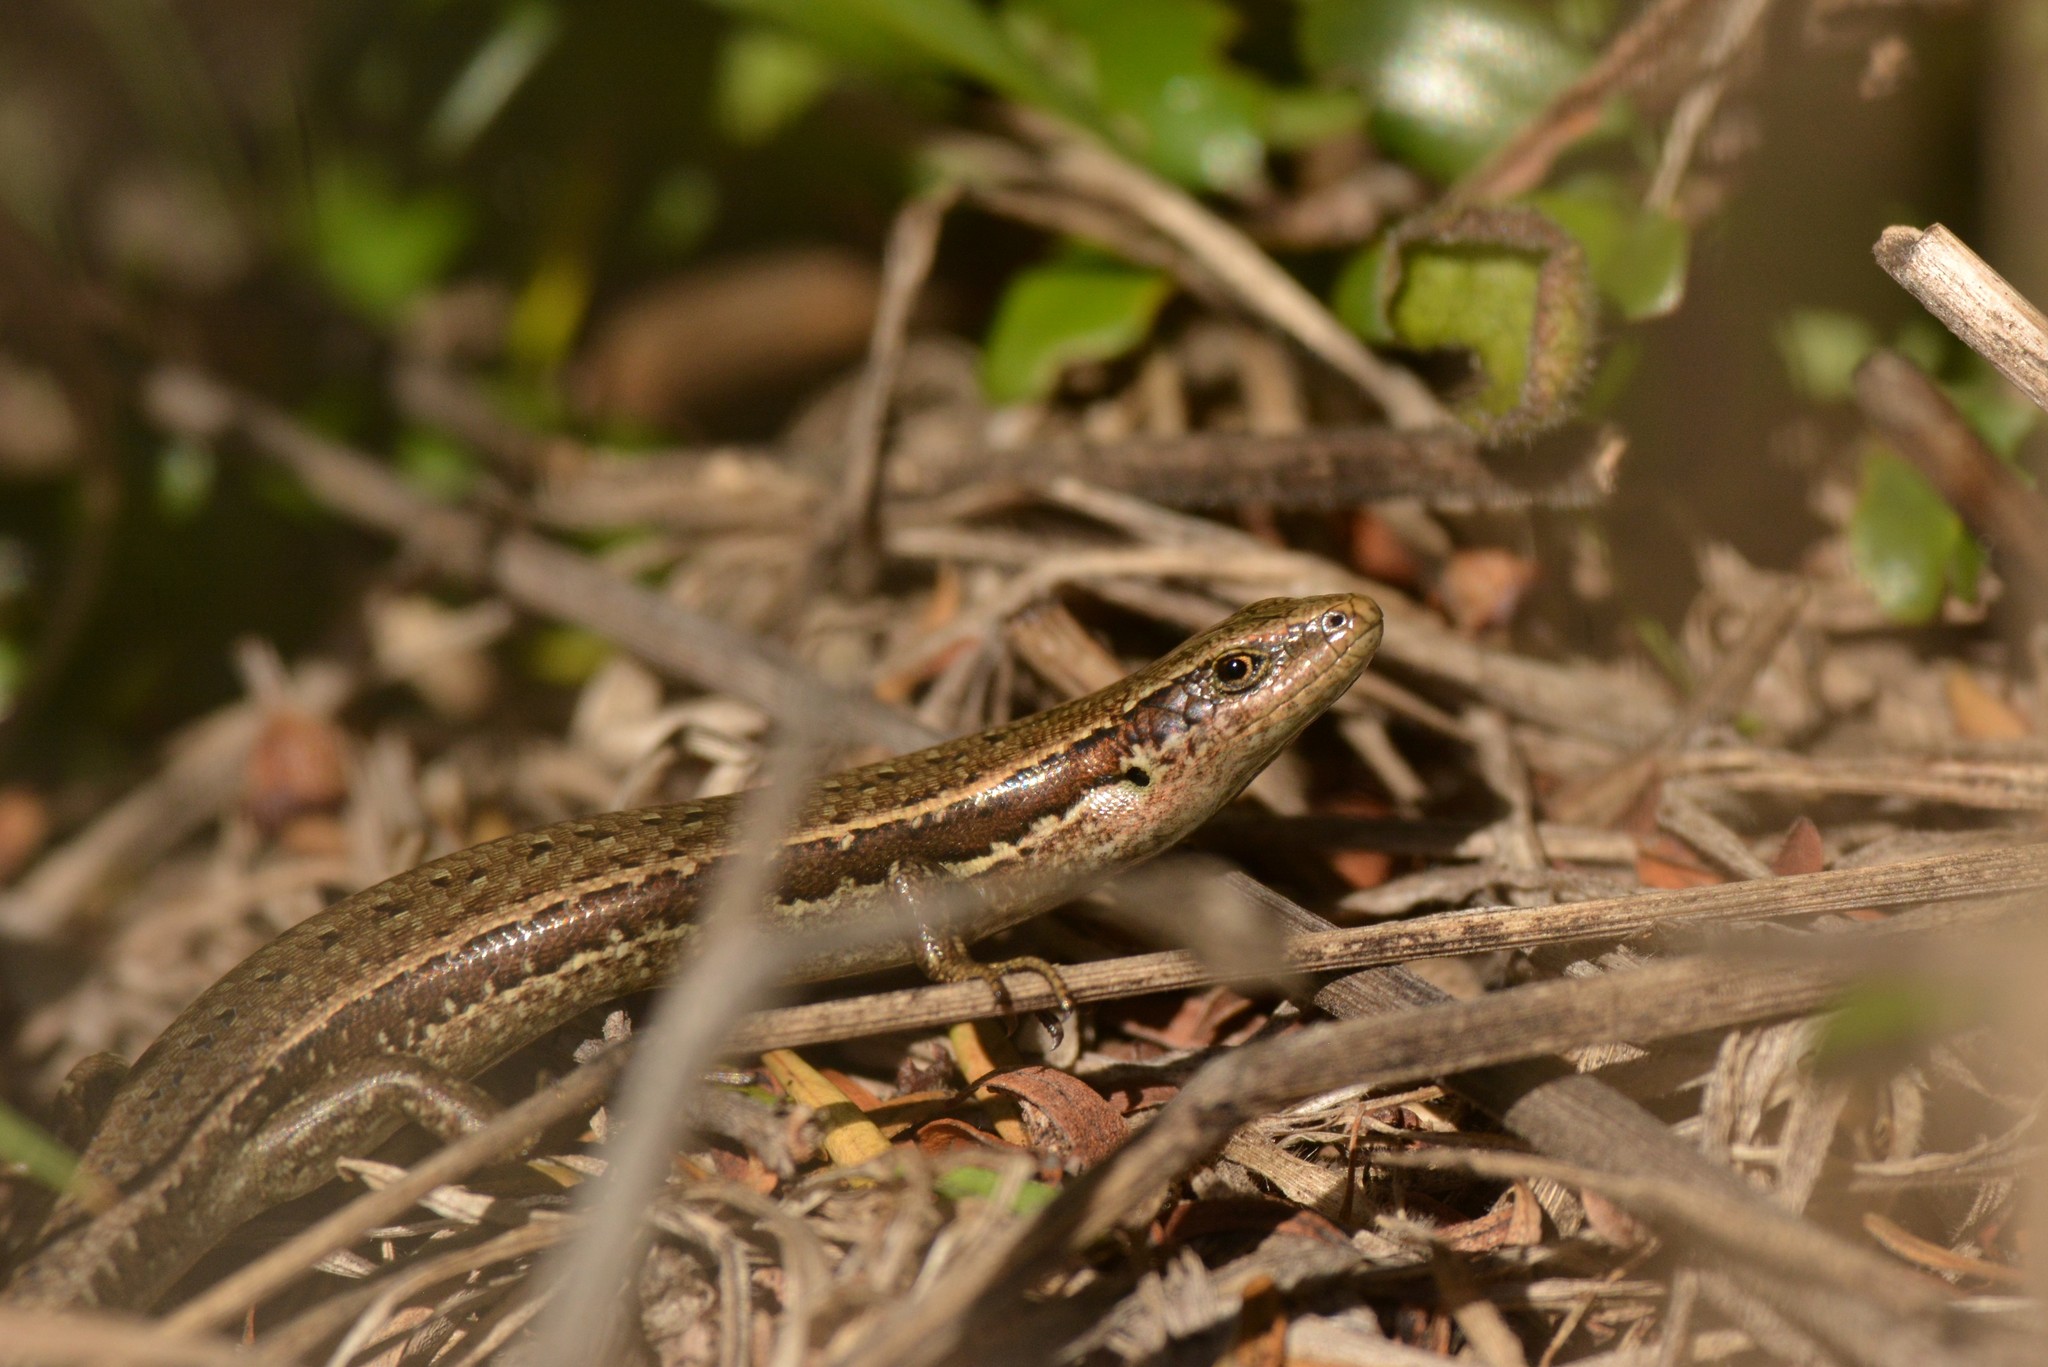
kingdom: Animalia
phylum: Chordata
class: Squamata
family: Scincidae
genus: Oligosoma
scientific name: Oligosoma polychroma
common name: Common new zealand skink
